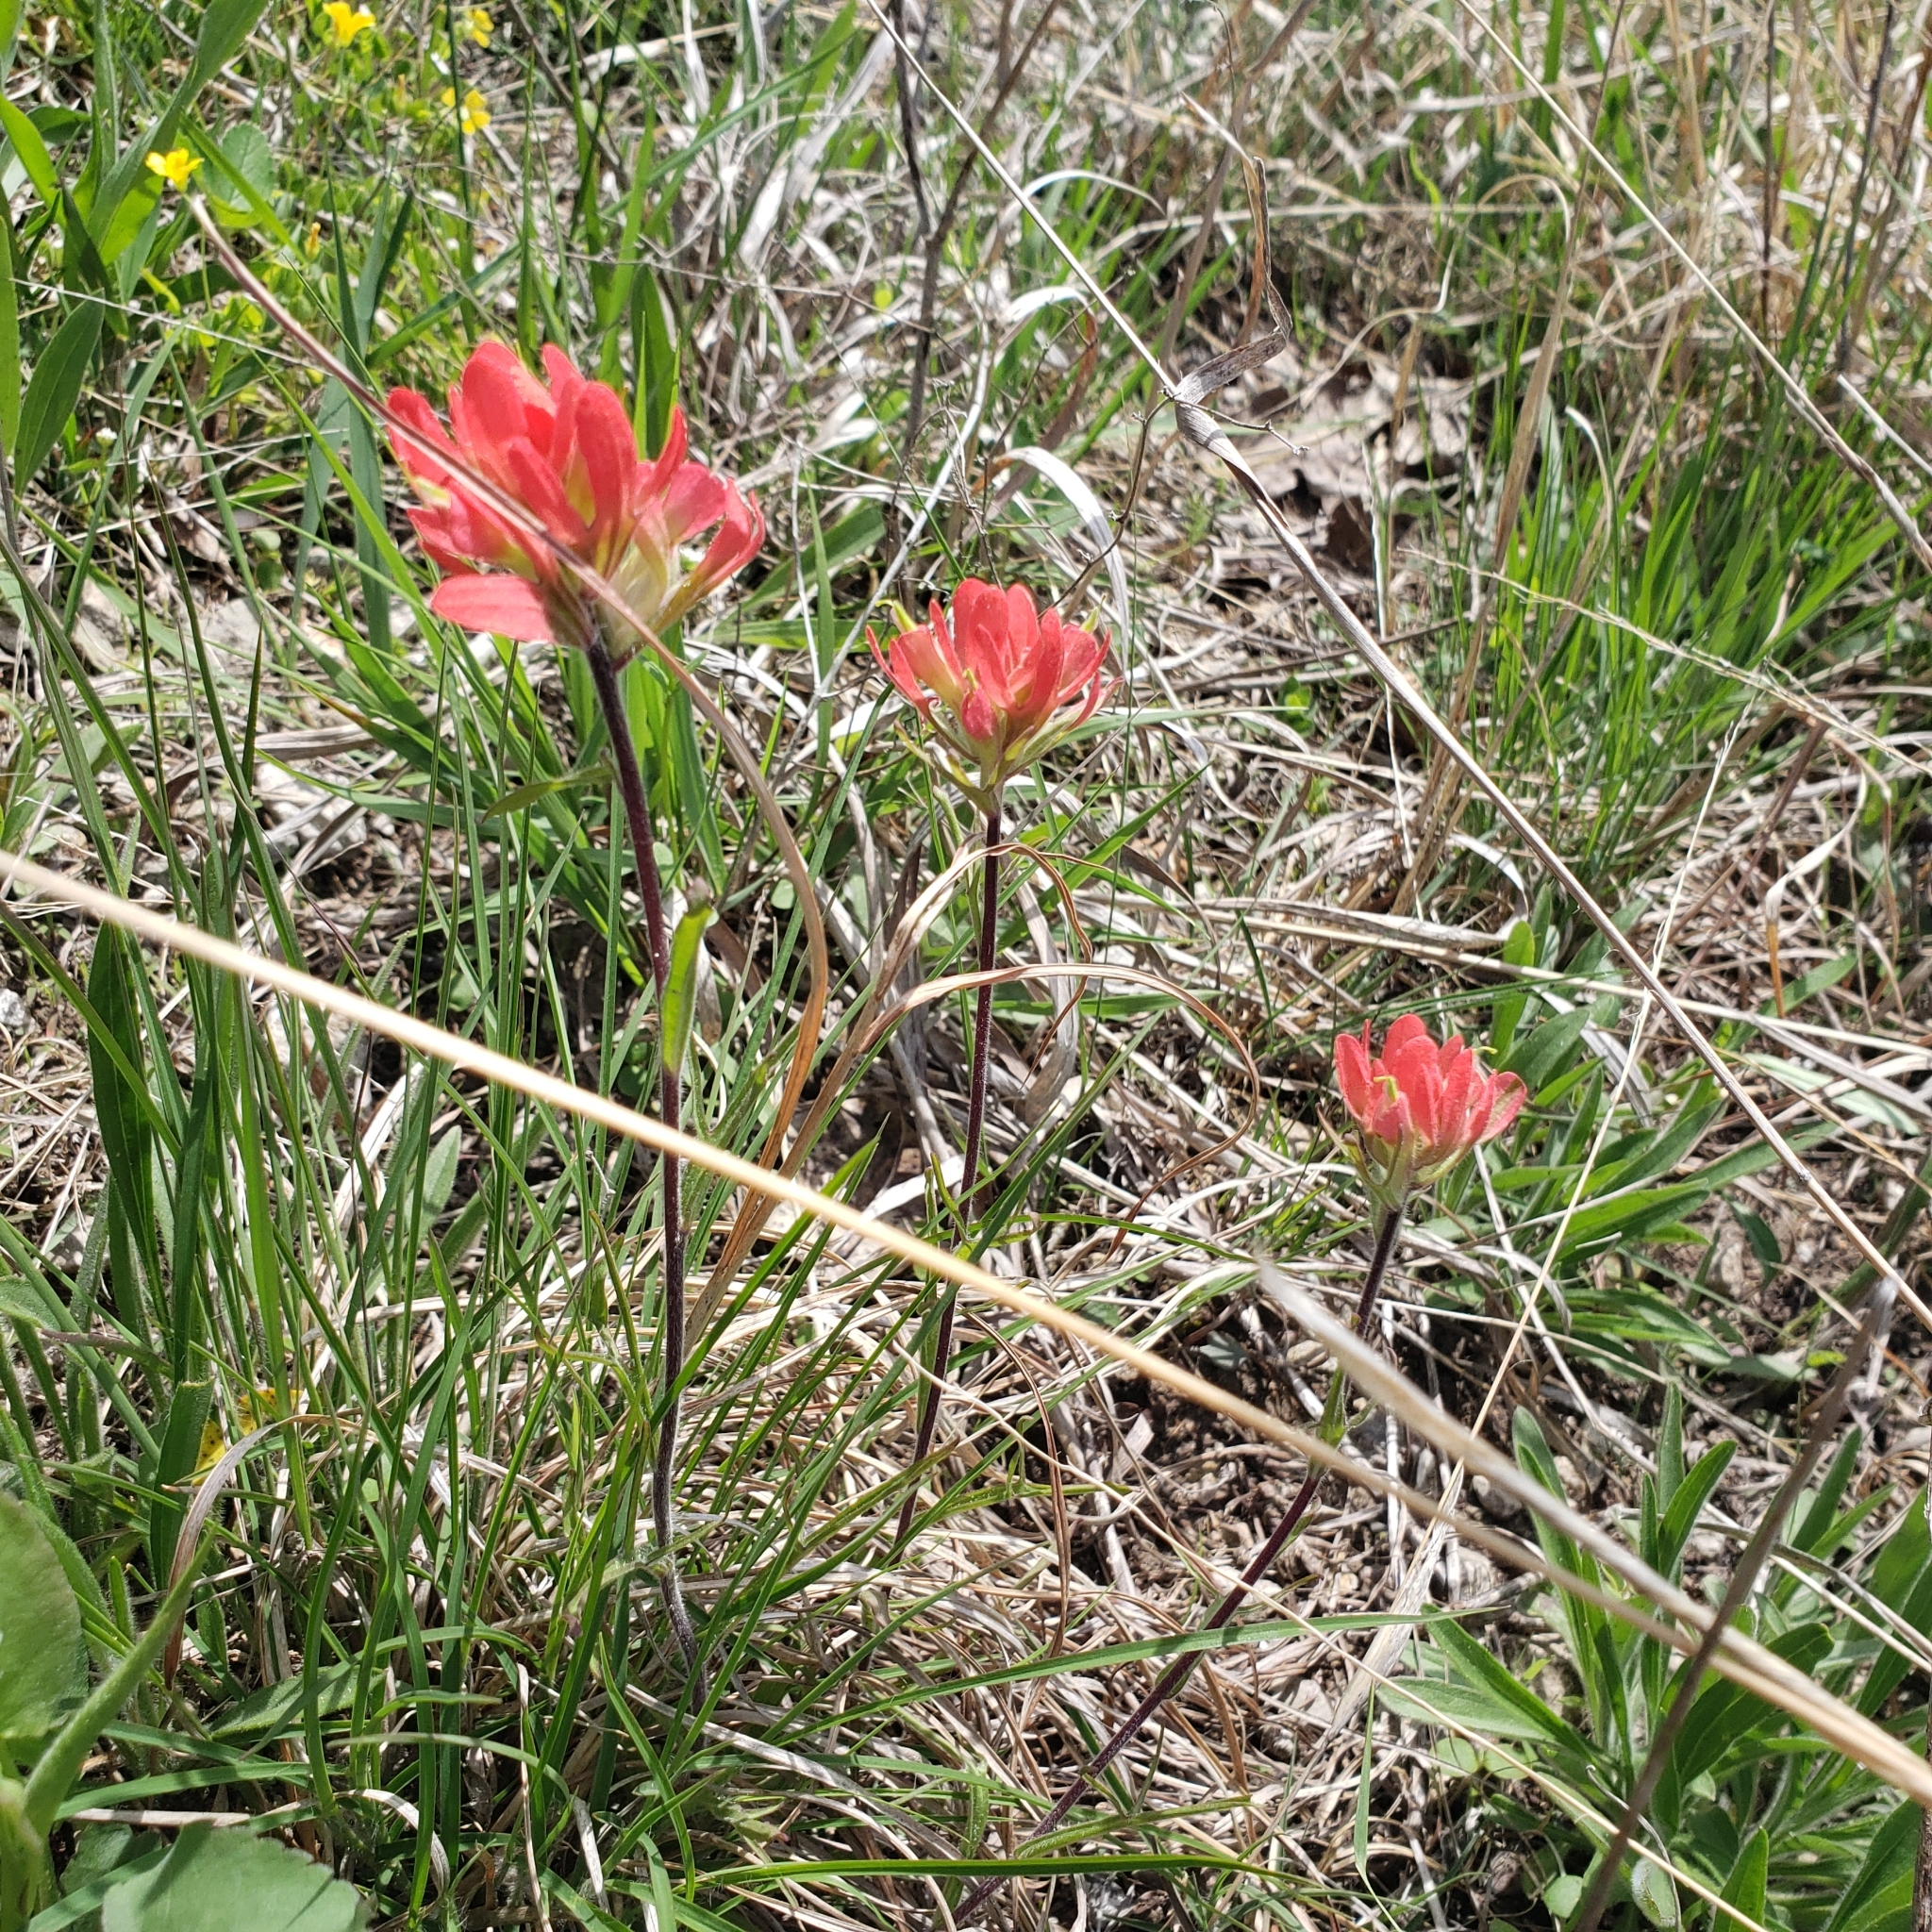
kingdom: Plantae
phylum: Tracheophyta
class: Magnoliopsida
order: Lamiales
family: Orobanchaceae
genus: Castilleja
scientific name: Castilleja coccinea
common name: Scarlet paintbrush
